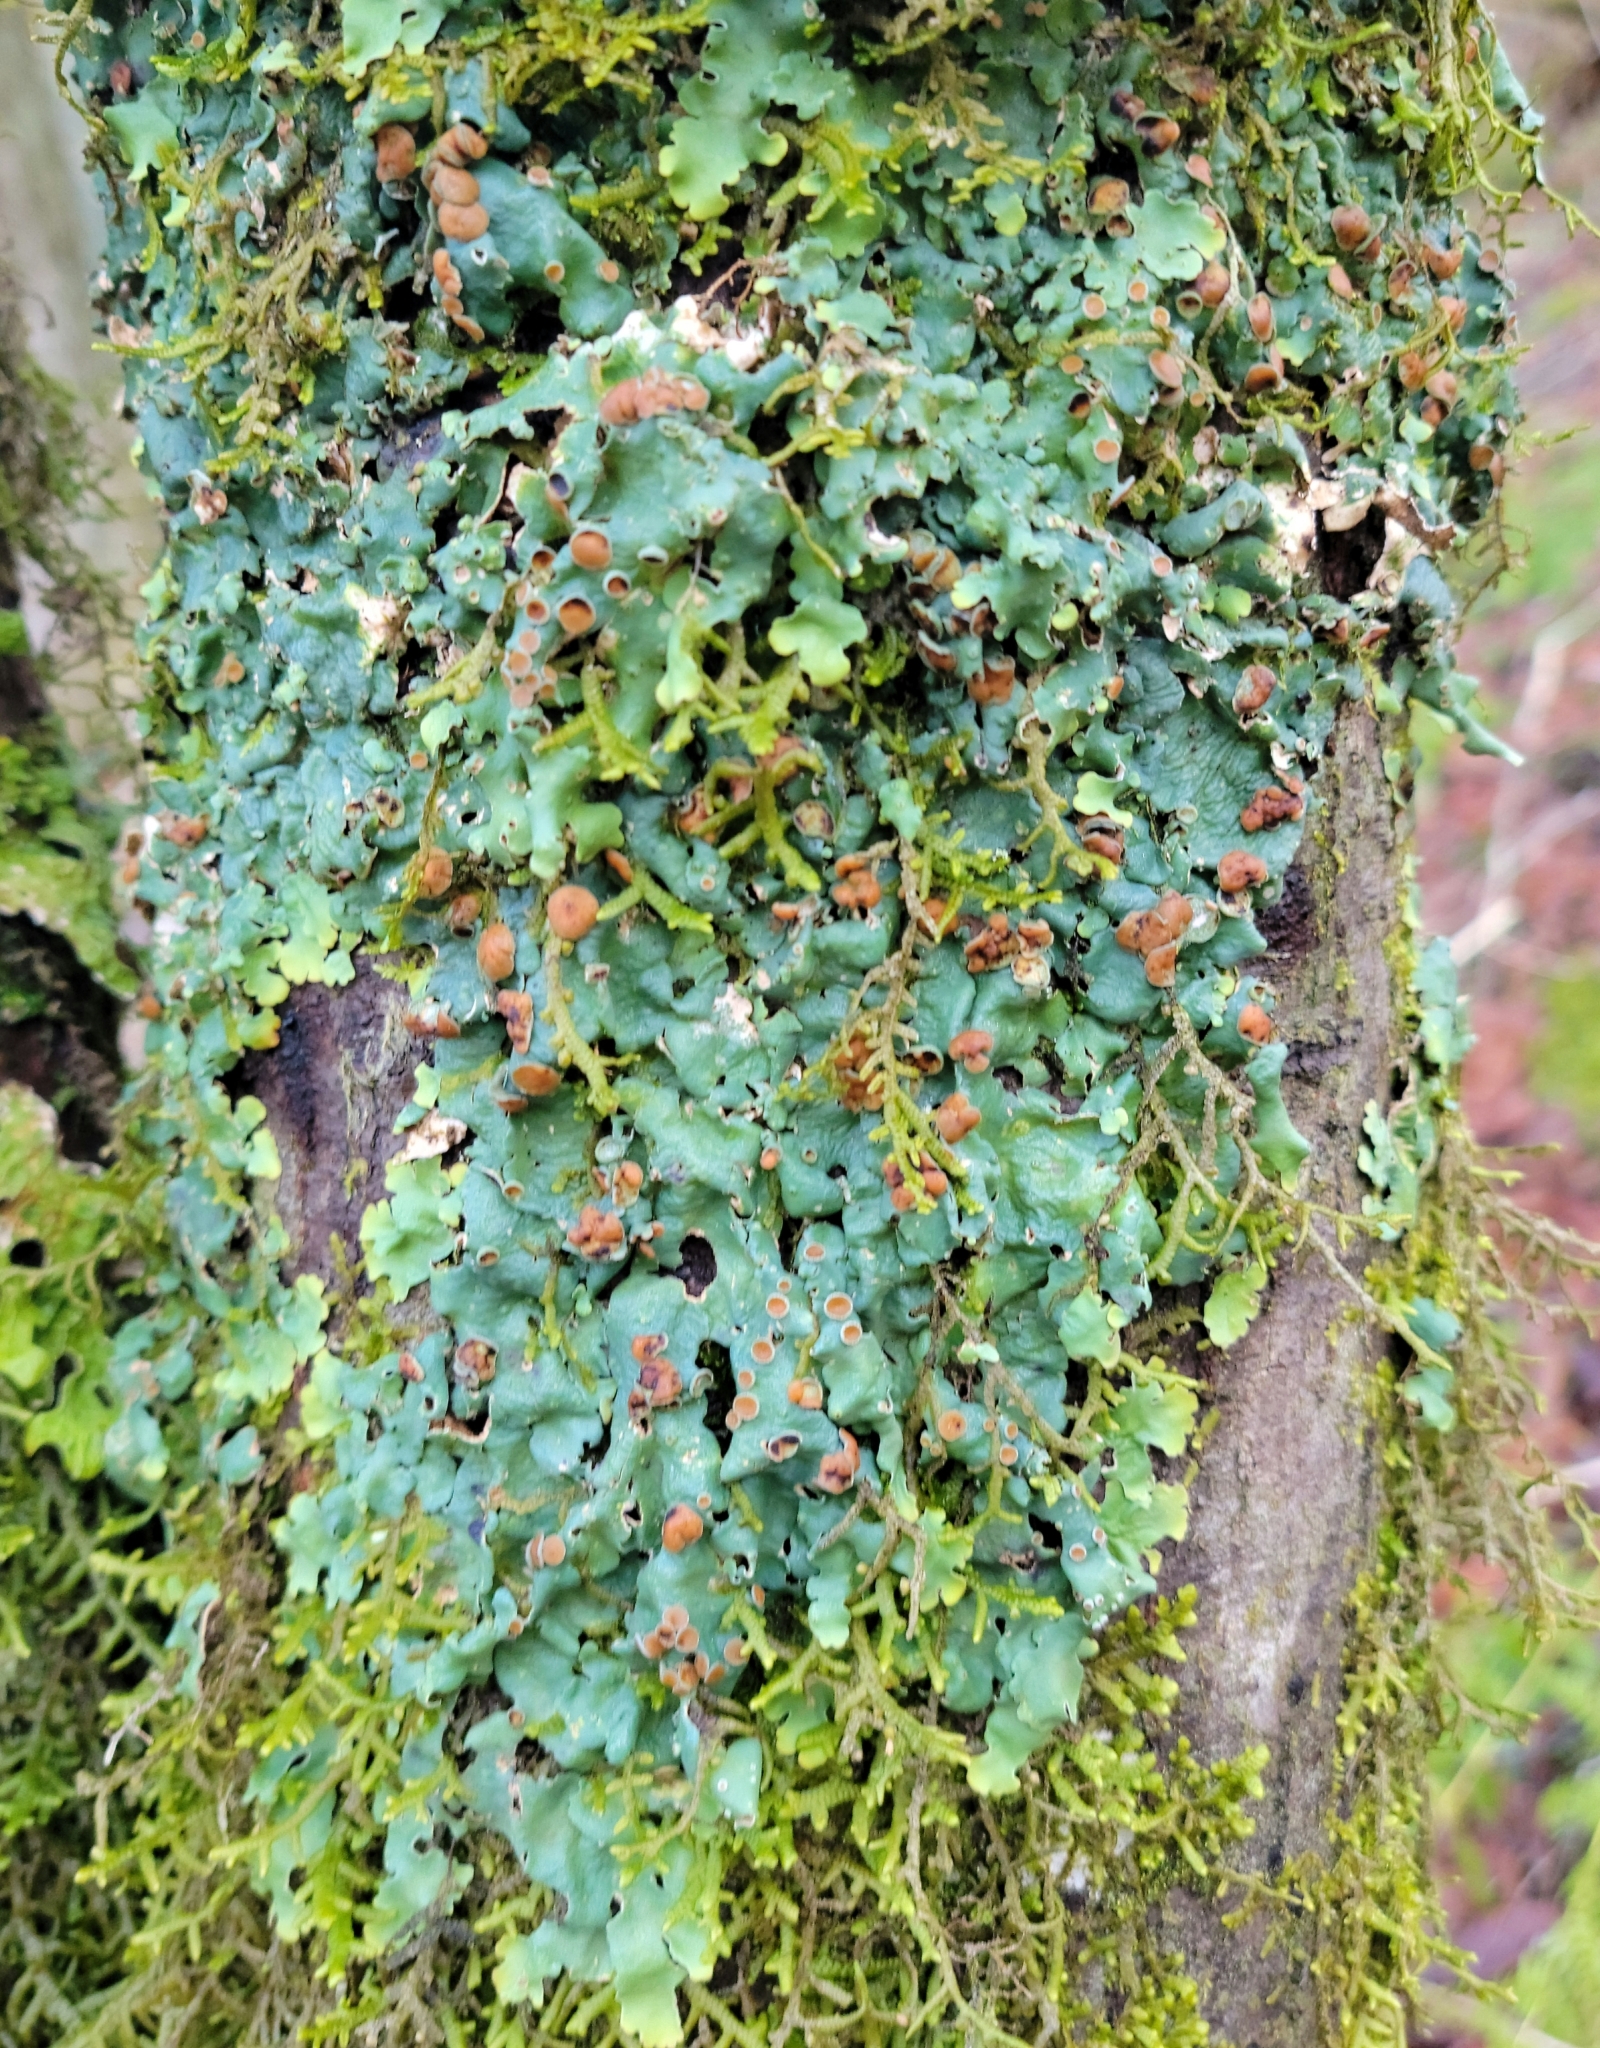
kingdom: Fungi
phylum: Ascomycota
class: Lecanoromycetes
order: Peltigerales
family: Lobariaceae
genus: Ricasolia
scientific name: Ricasolia quercizans
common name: Smooth lungwort
